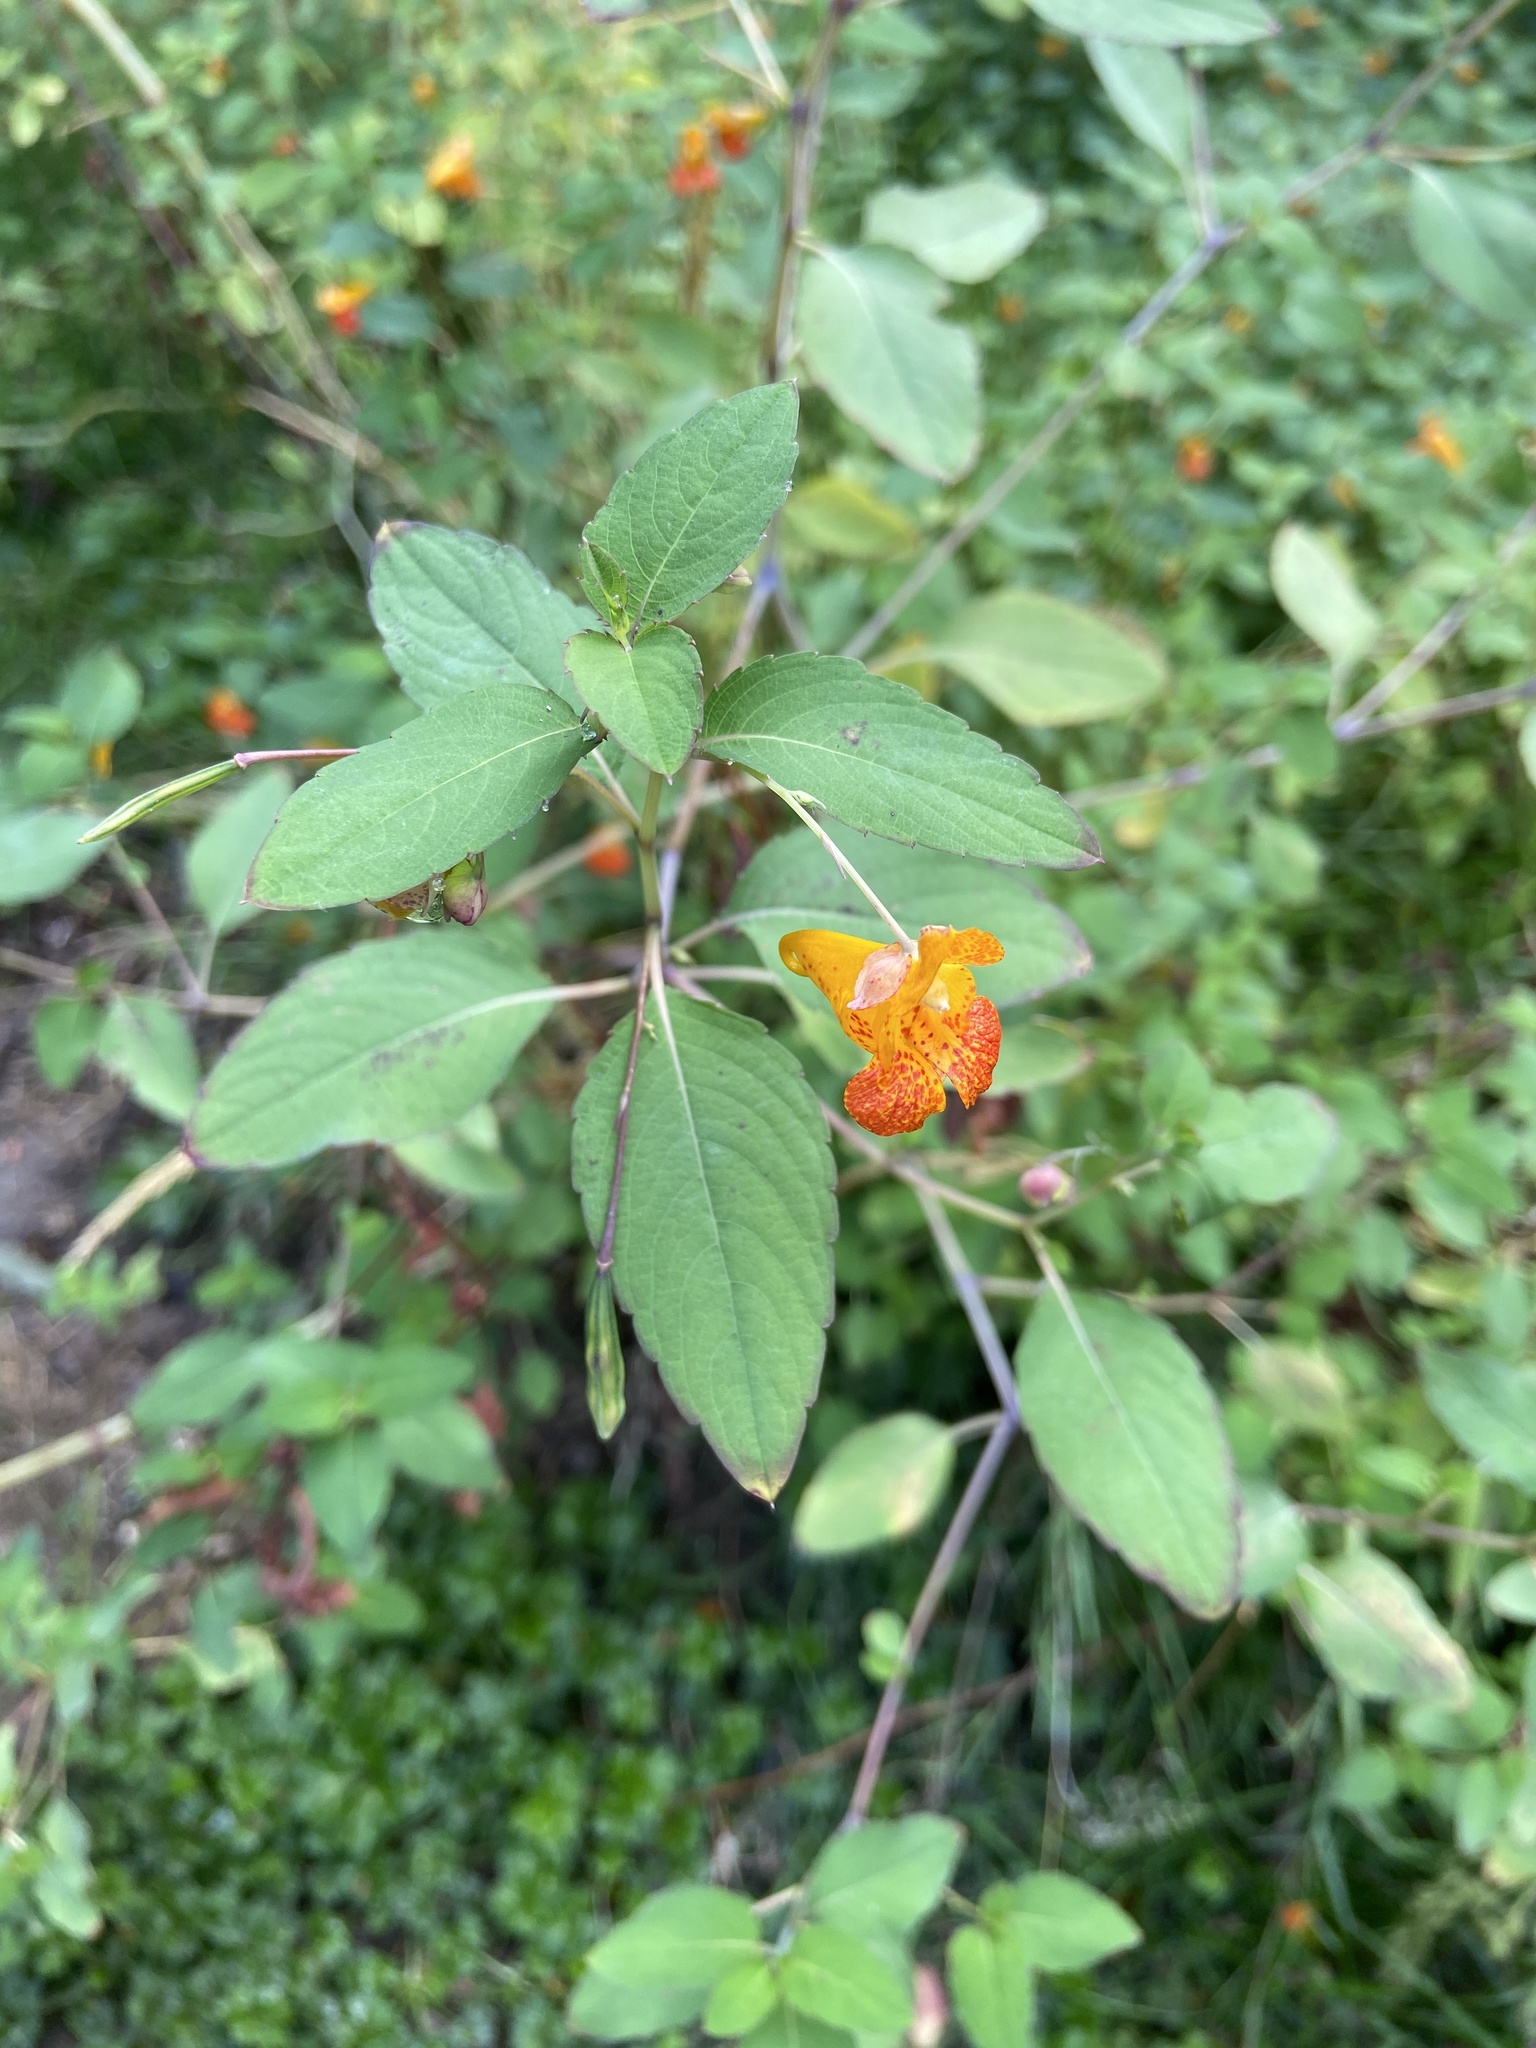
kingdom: Plantae
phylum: Tracheophyta
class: Magnoliopsida
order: Ericales
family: Balsaminaceae
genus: Impatiens
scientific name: Impatiens capensis
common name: Orange balsam
